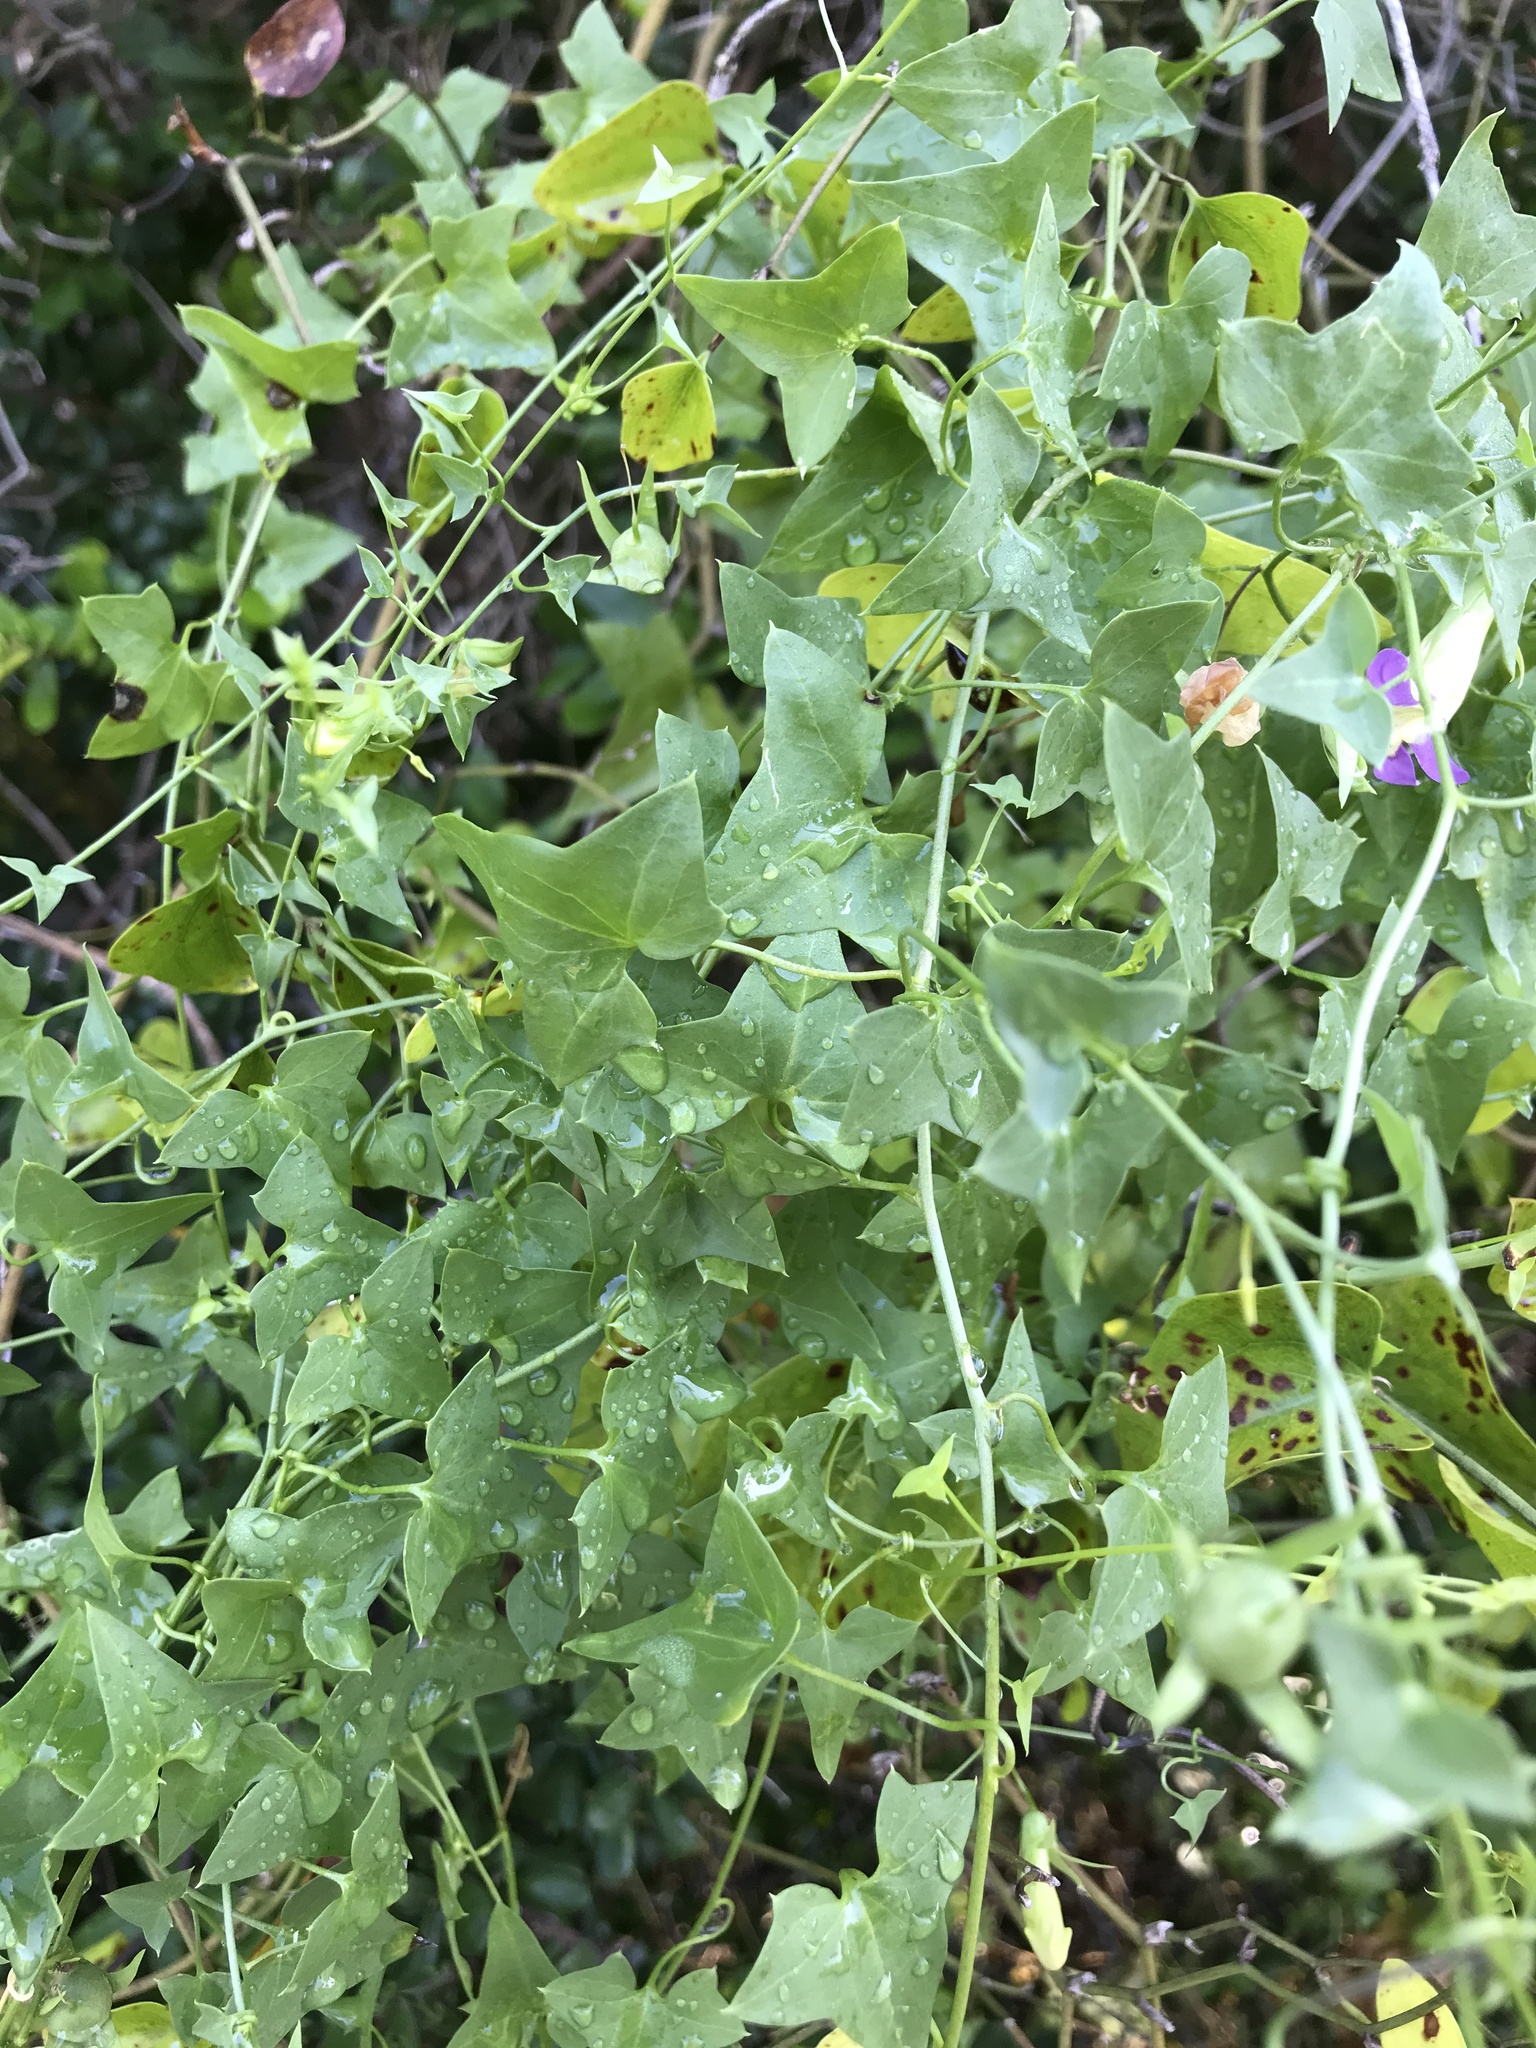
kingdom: Plantae
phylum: Tracheophyta
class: Magnoliopsida
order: Lamiales
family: Plantaginaceae
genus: Maurandella
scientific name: Maurandella antirrhiniflora
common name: Violet twining-snapdragon
